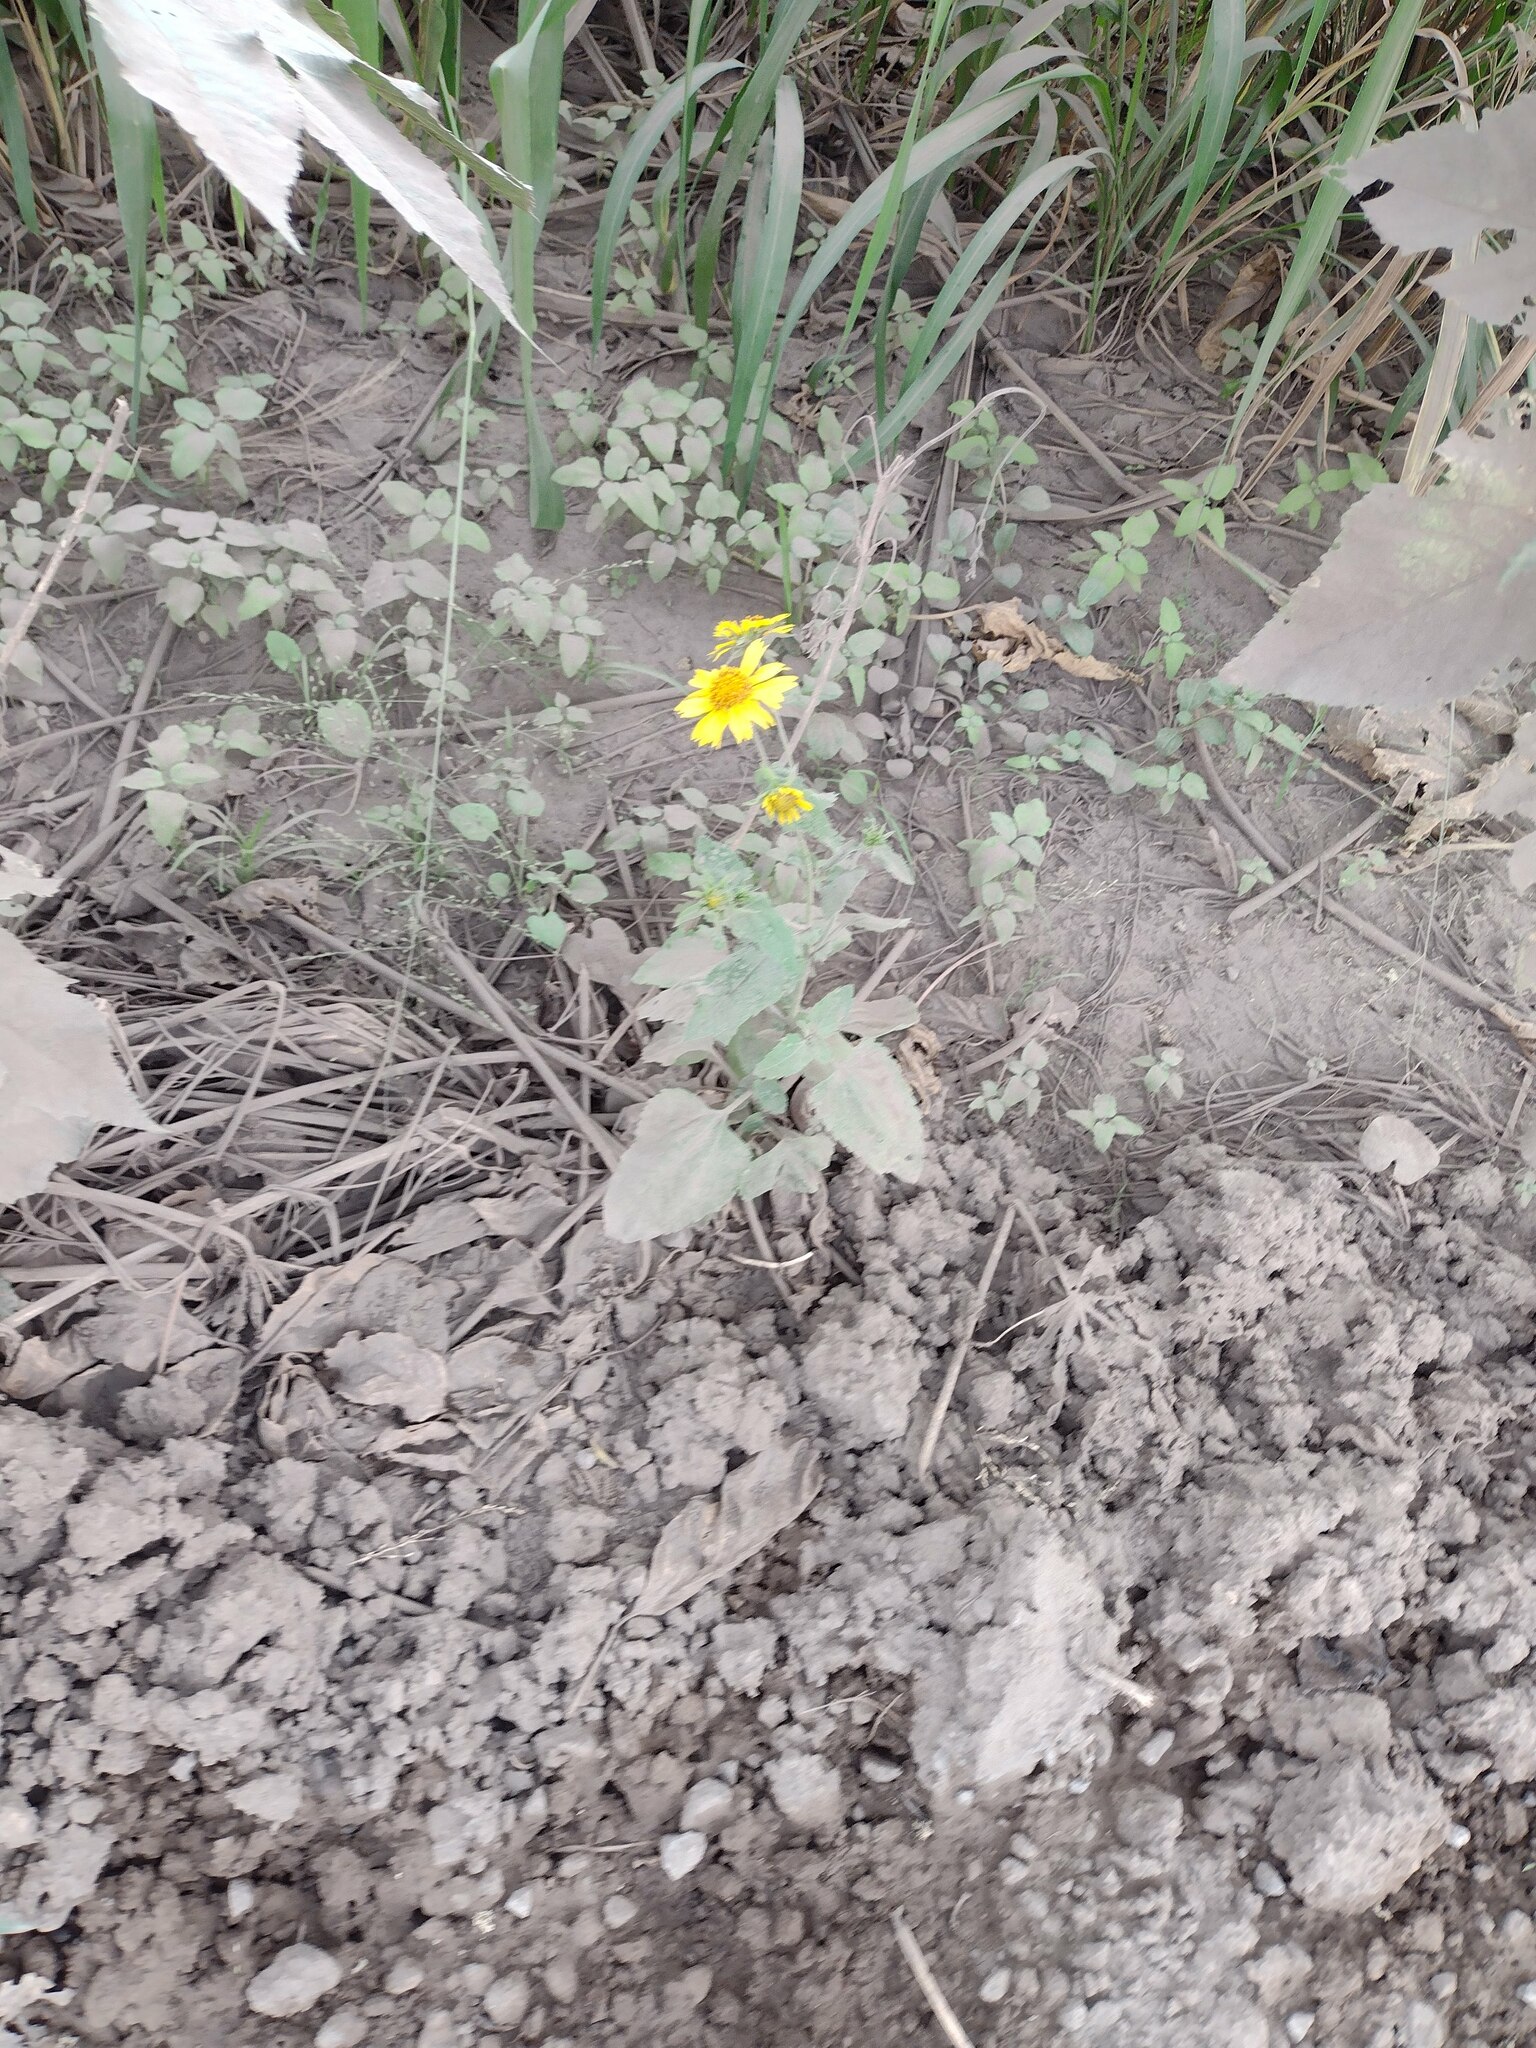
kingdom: Plantae
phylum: Tracheophyta
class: Magnoliopsida
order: Asterales
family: Asteraceae
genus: Verbesina
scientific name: Verbesina encelioides
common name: Golden crownbeard
